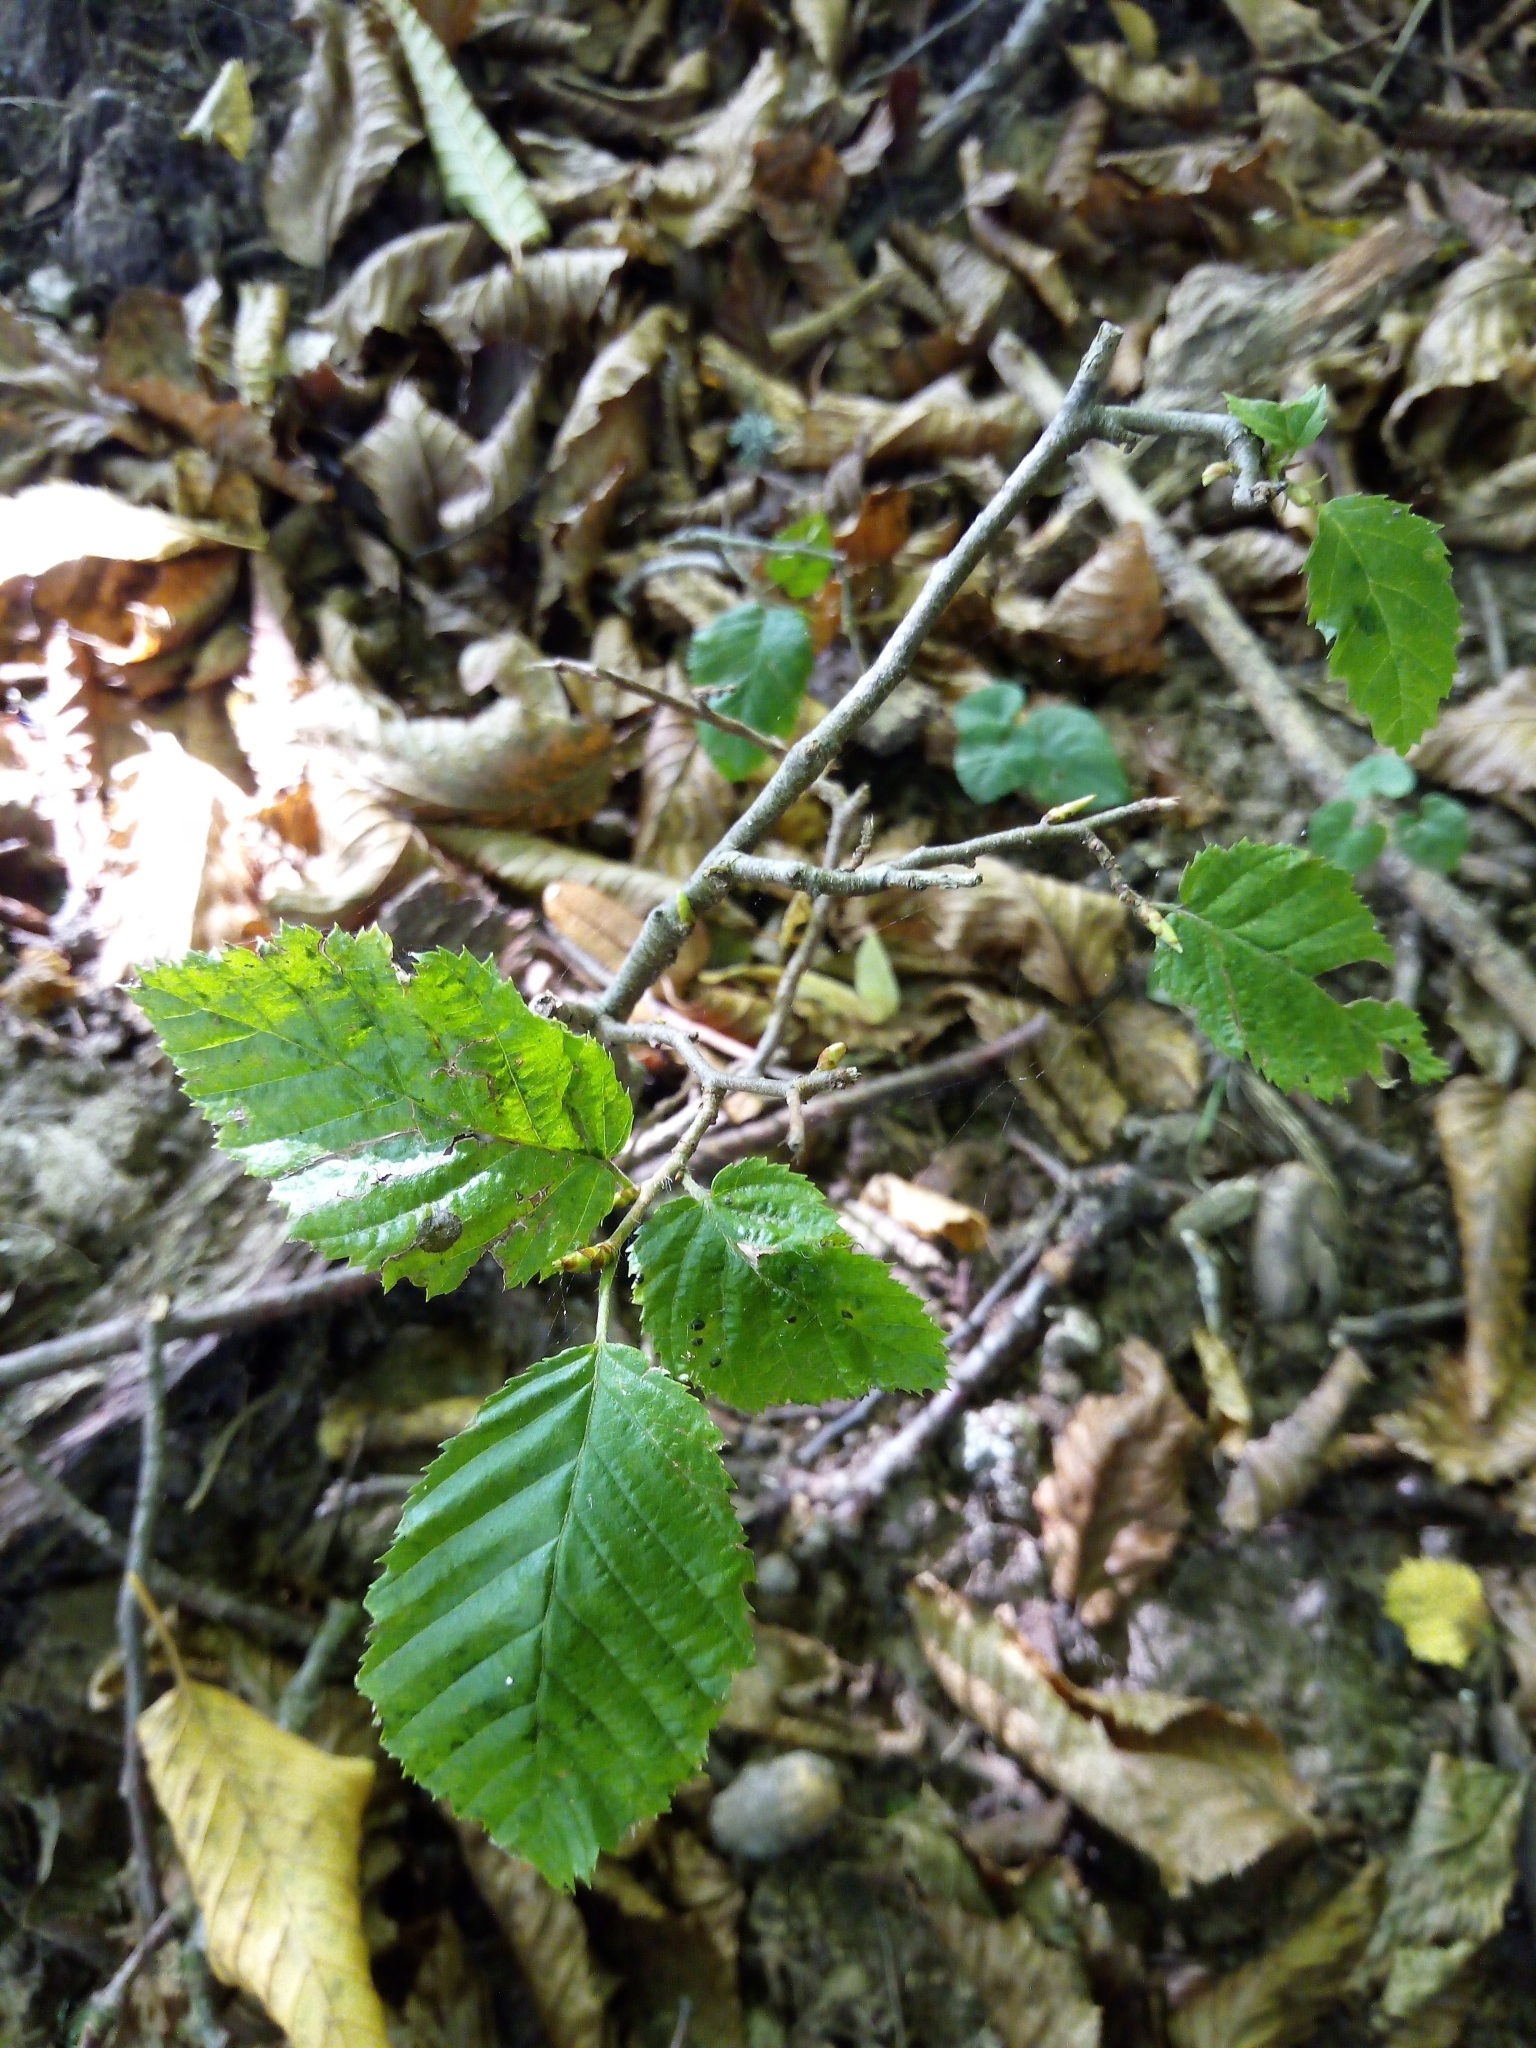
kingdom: Plantae
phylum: Tracheophyta
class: Magnoliopsida
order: Fagales
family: Betulaceae
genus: Carpinus
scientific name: Carpinus betulus
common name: Hornbeam
